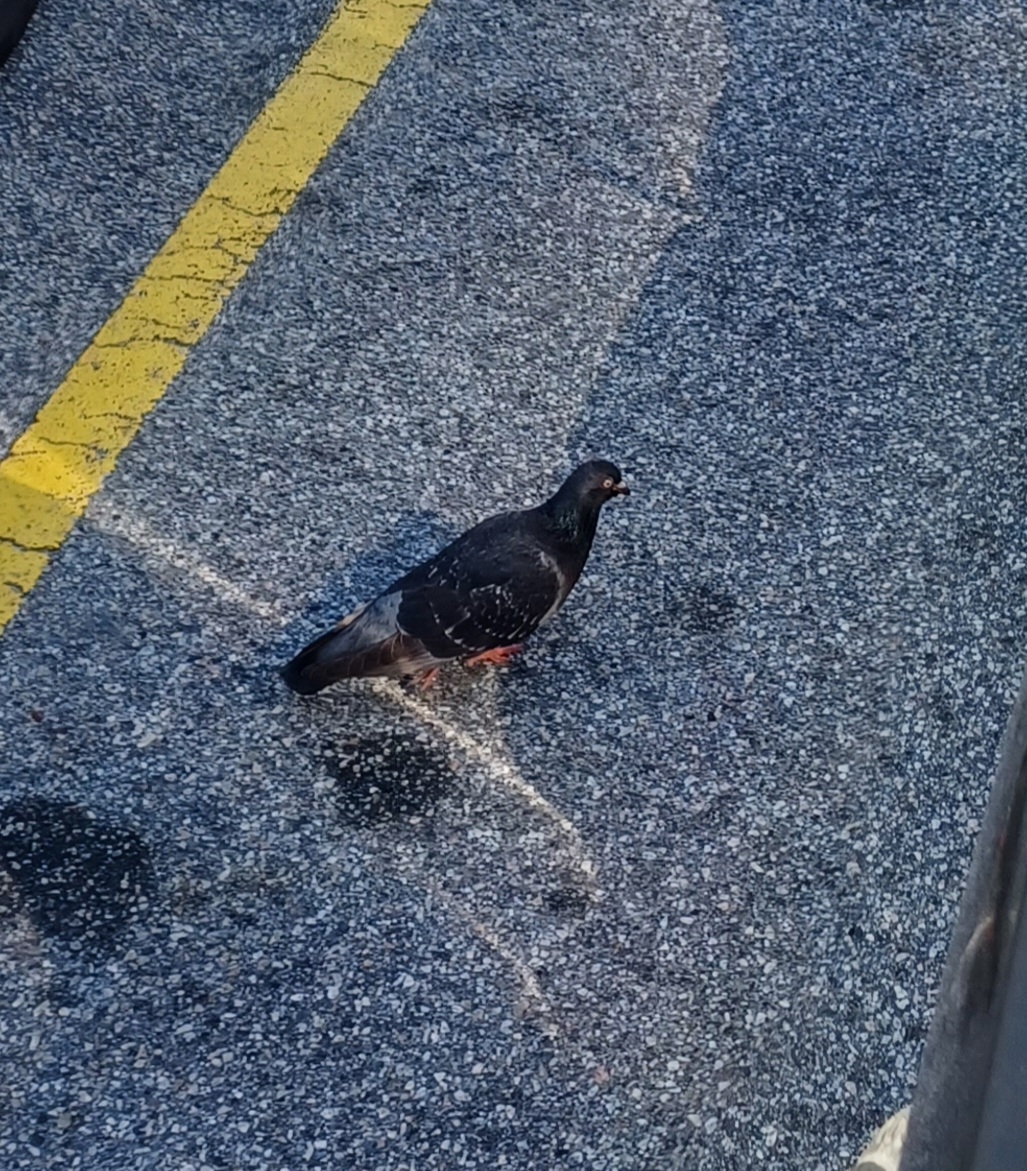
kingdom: Animalia
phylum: Chordata
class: Aves
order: Columbiformes
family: Columbidae
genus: Columba
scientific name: Columba livia
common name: Rock pigeon
